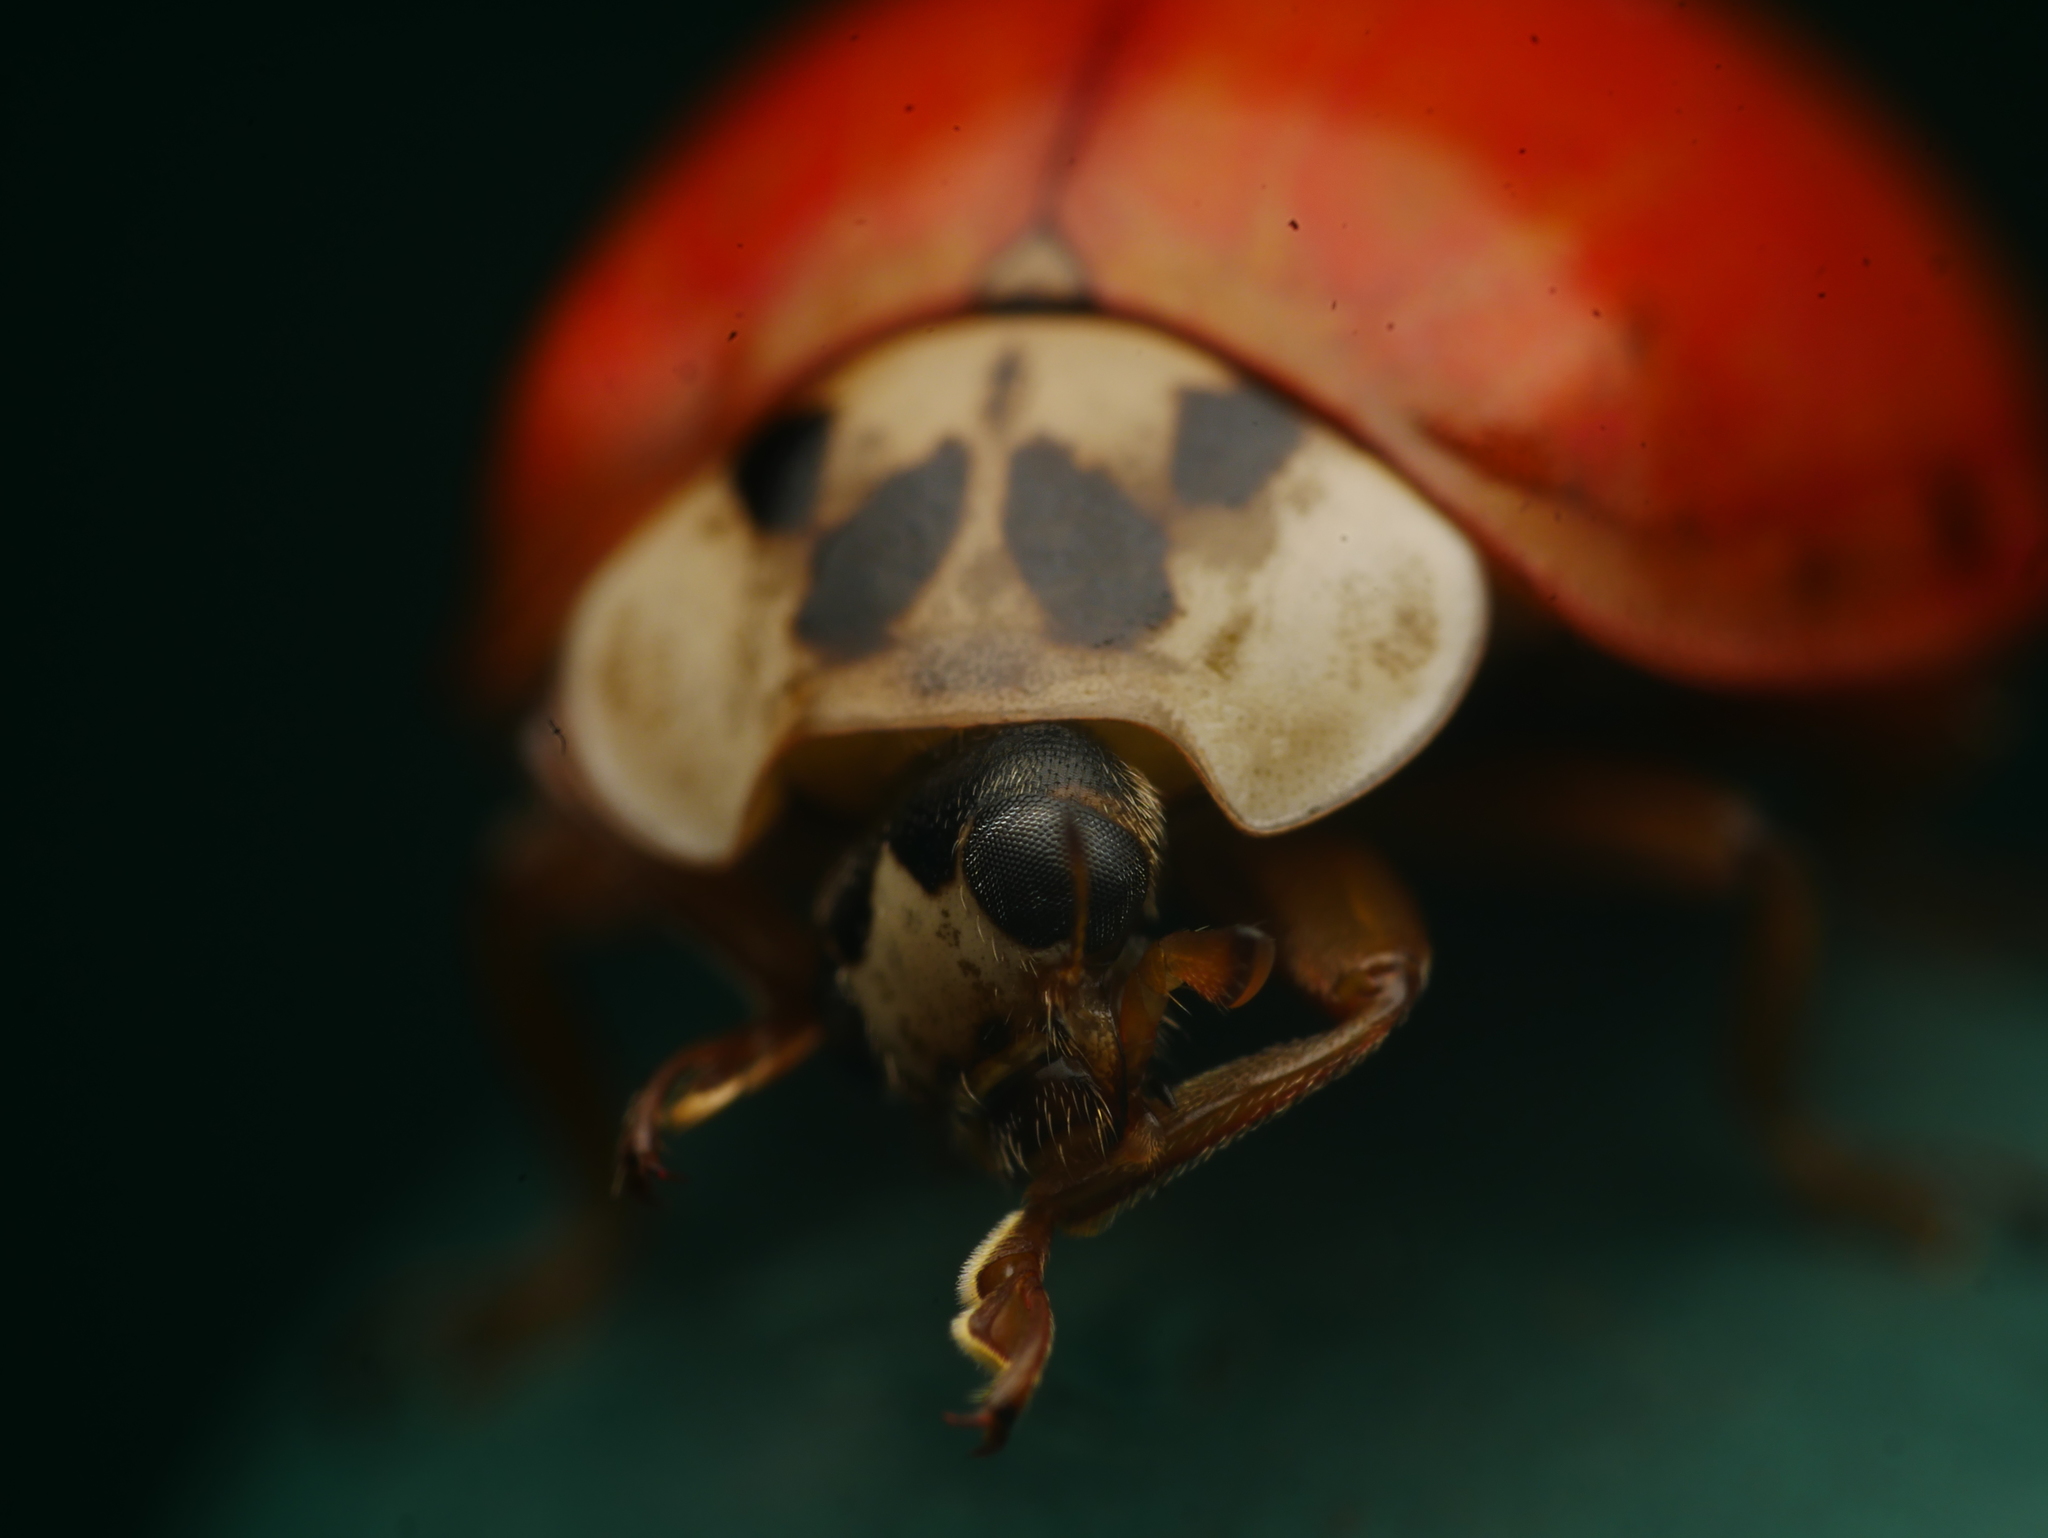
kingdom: Animalia
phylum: Arthropoda
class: Insecta
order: Coleoptera
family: Coccinellidae
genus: Harmonia
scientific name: Harmonia axyridis
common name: Harlequin ladybird
